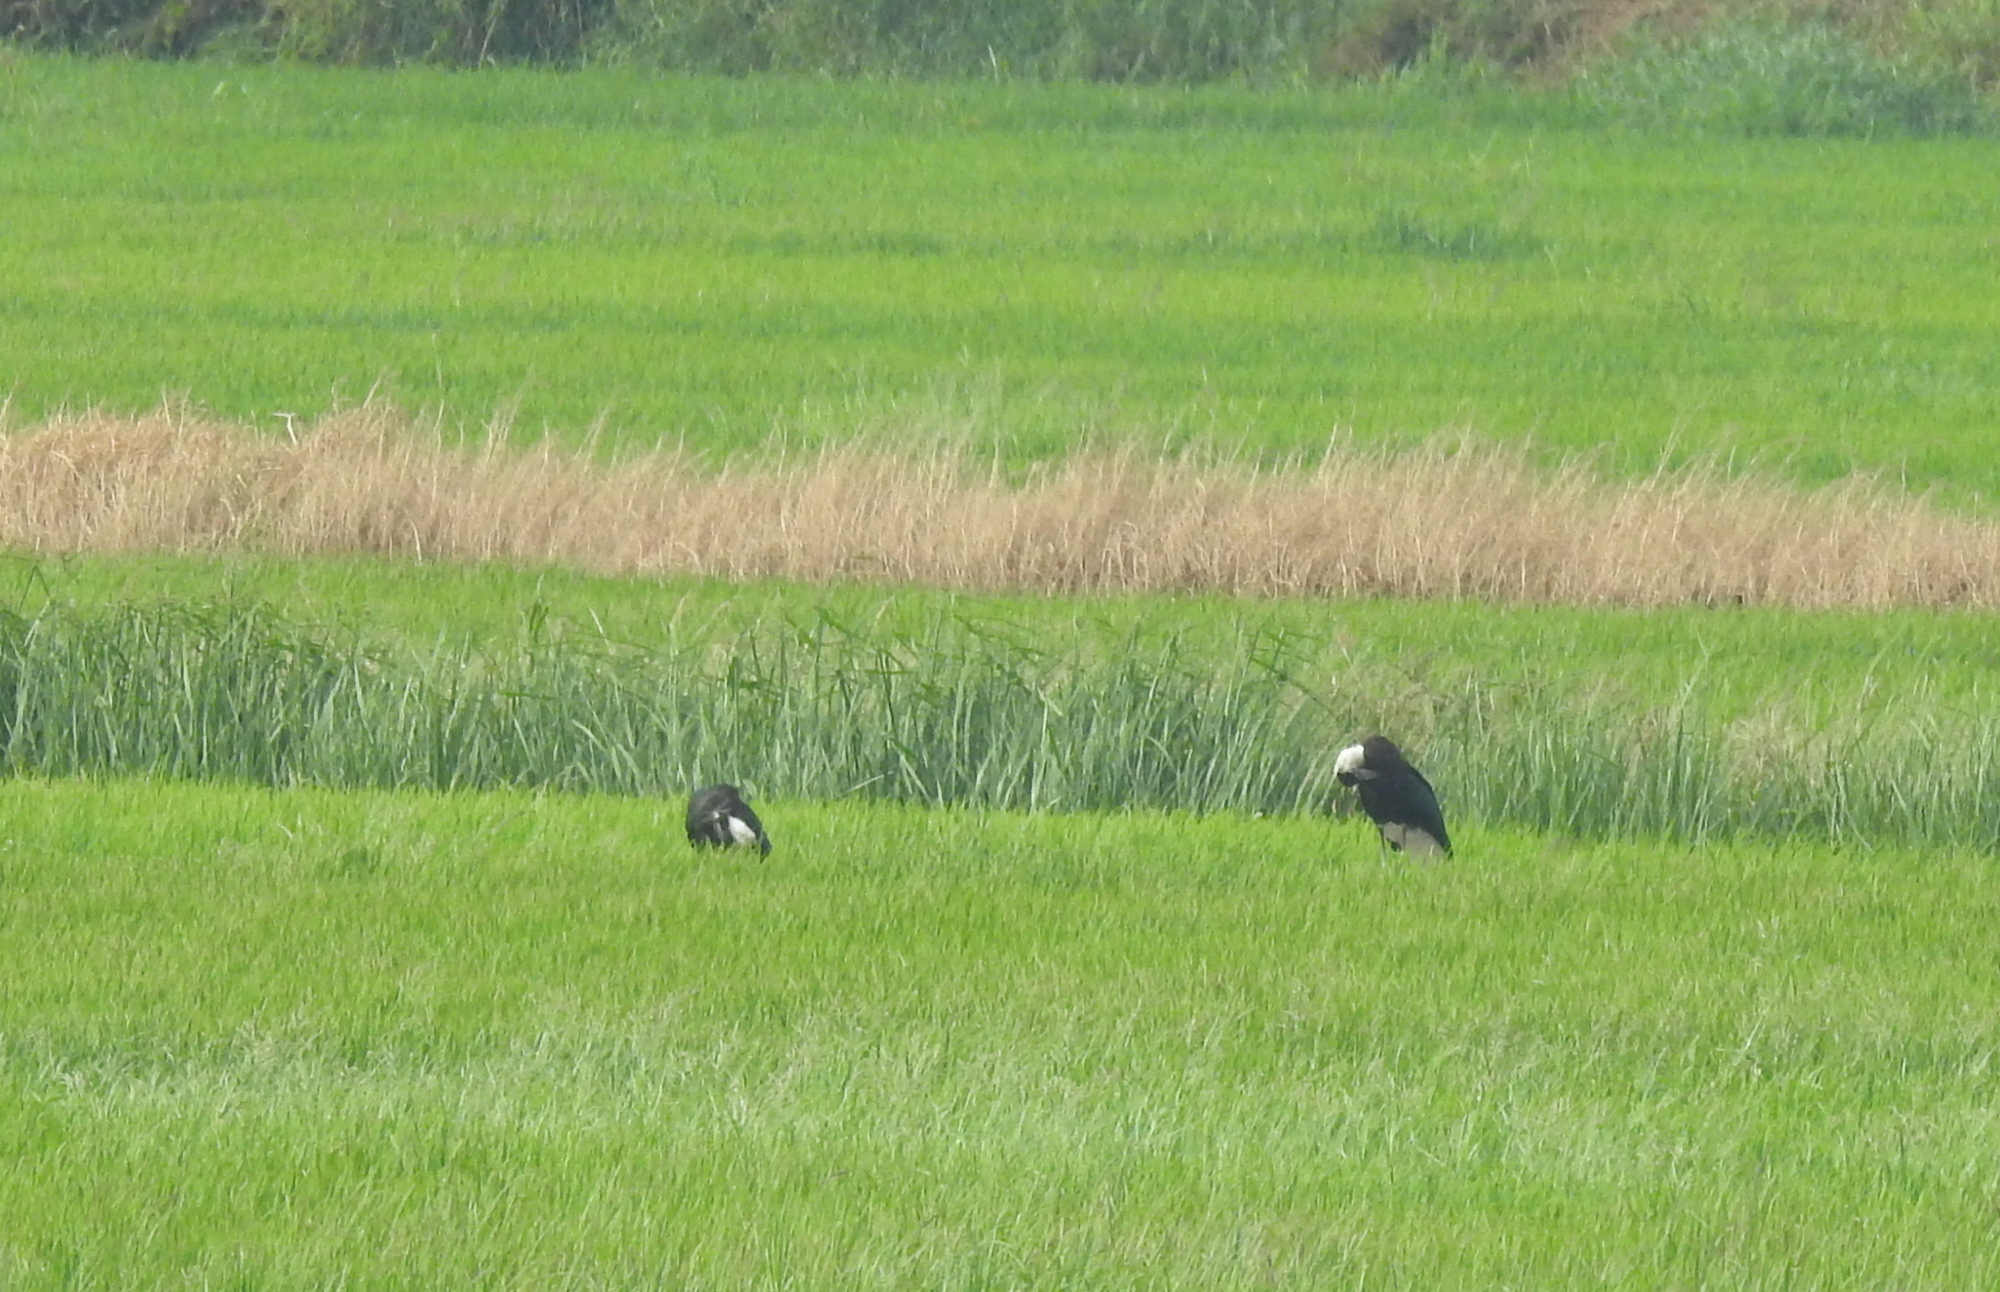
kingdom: Animalia
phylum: Chordata
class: Aves
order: Ciconiiformes
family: Ciconiidae
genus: Ciconia
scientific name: Ciconia episcopus
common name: Woolly-necked stork
